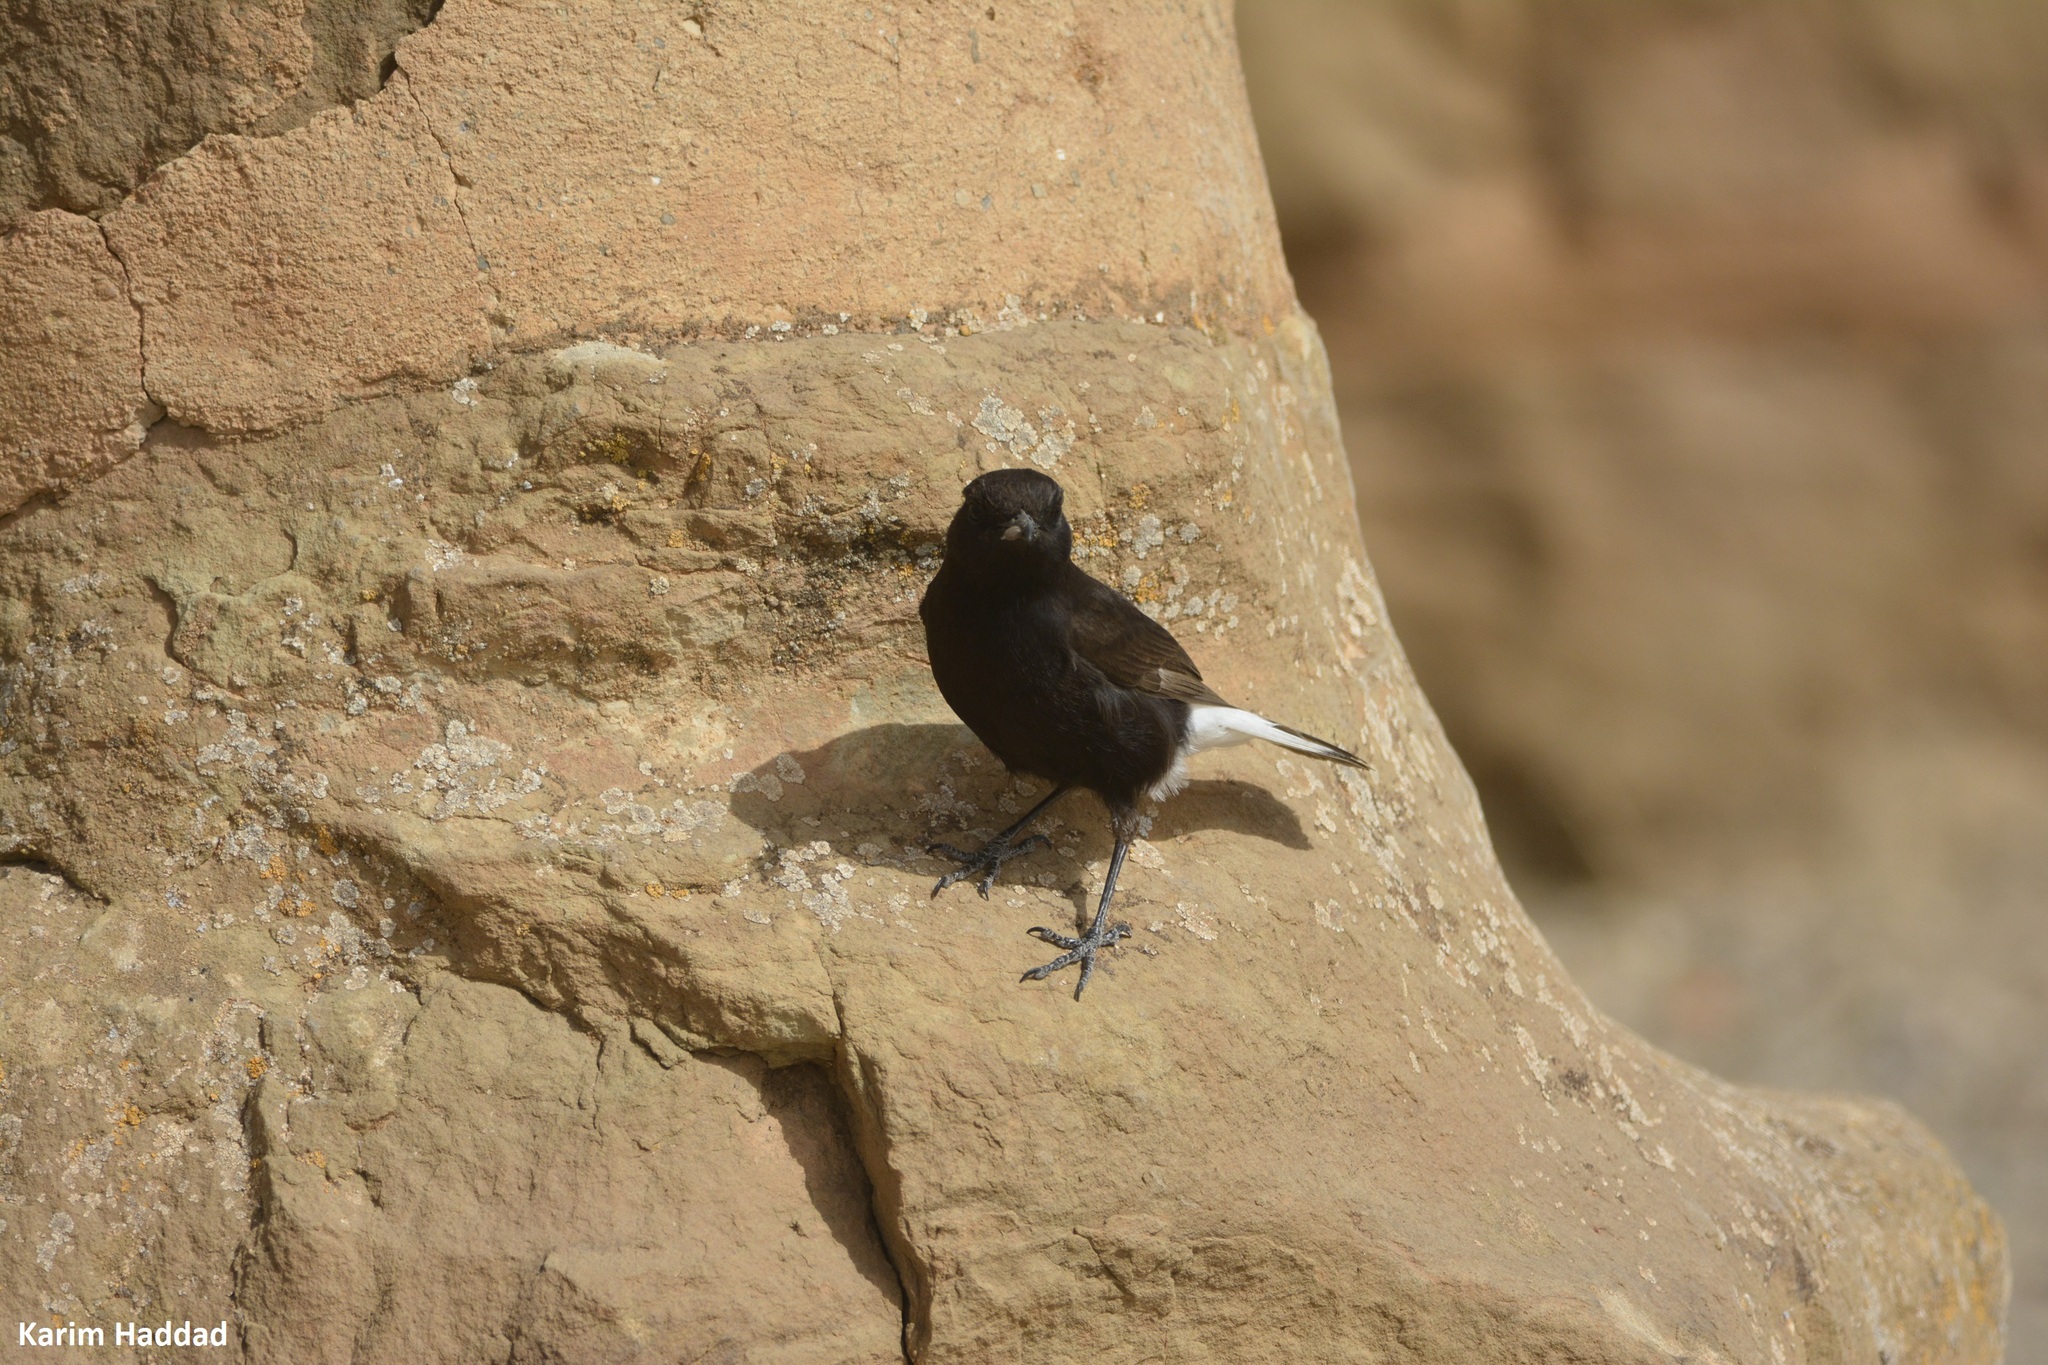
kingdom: Animalia
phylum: Chordata
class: Aves
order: Passeriformes
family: Muscicapidae
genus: Oenanthe
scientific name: Oenanthe leucura
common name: Black wheatear
